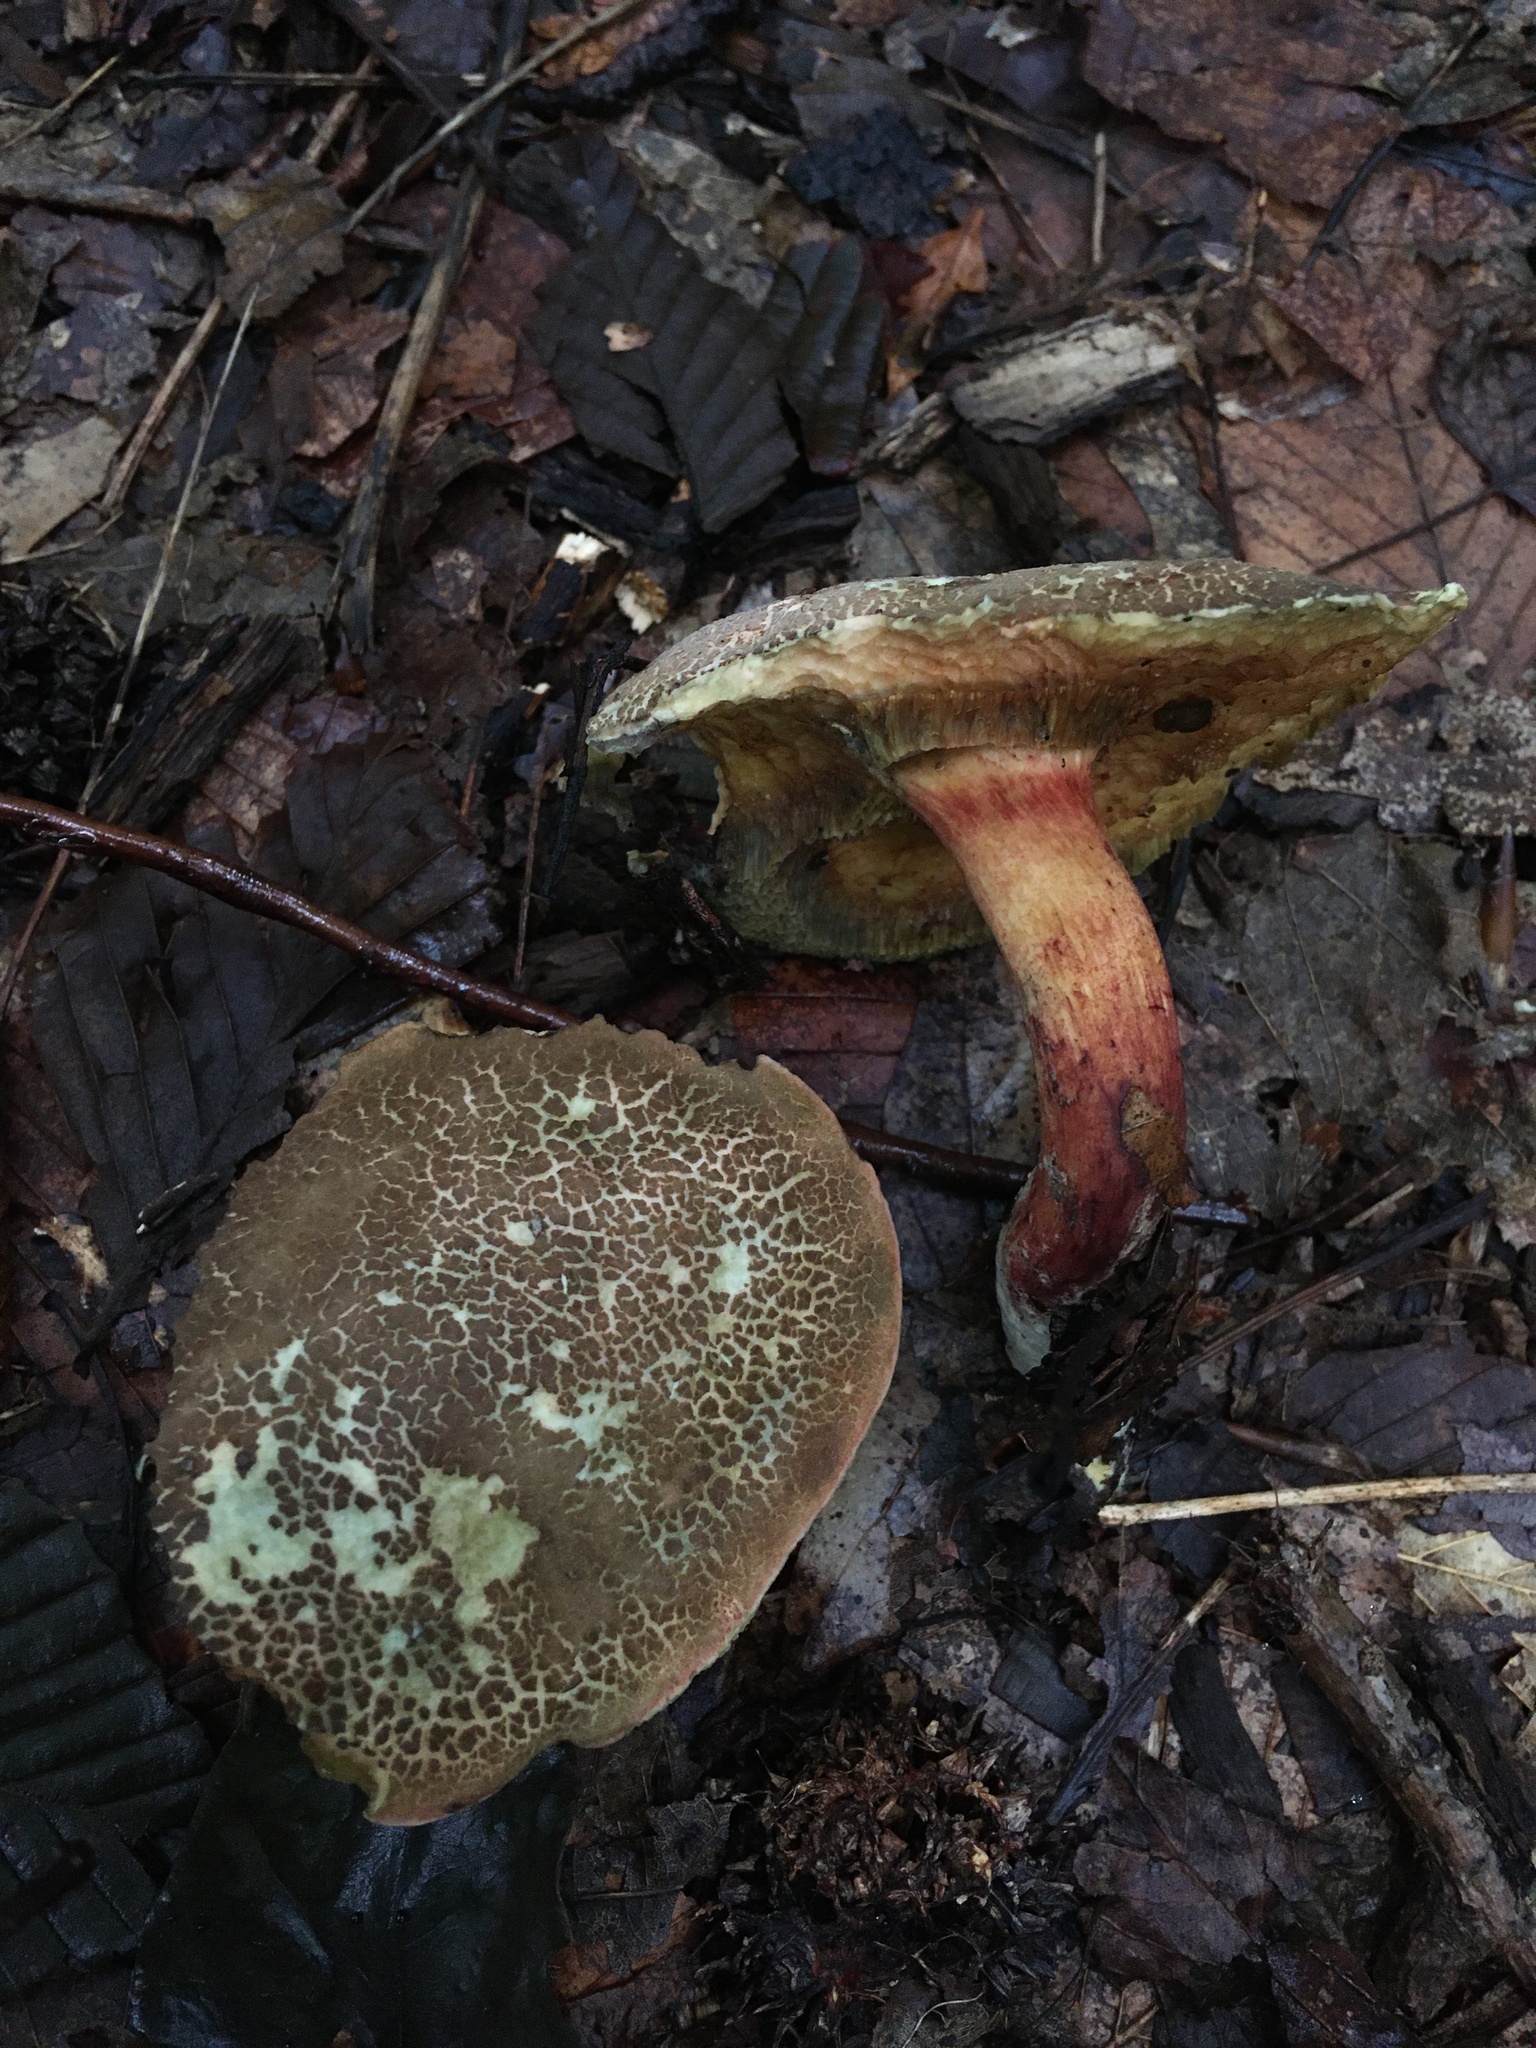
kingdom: Fungi
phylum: Basidiomycota
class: Agaricomycetes
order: Boletales
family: Boletaceae
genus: Xerocomellus
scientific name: Xerocomellus chrysenteron
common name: Red-cracking bolete
